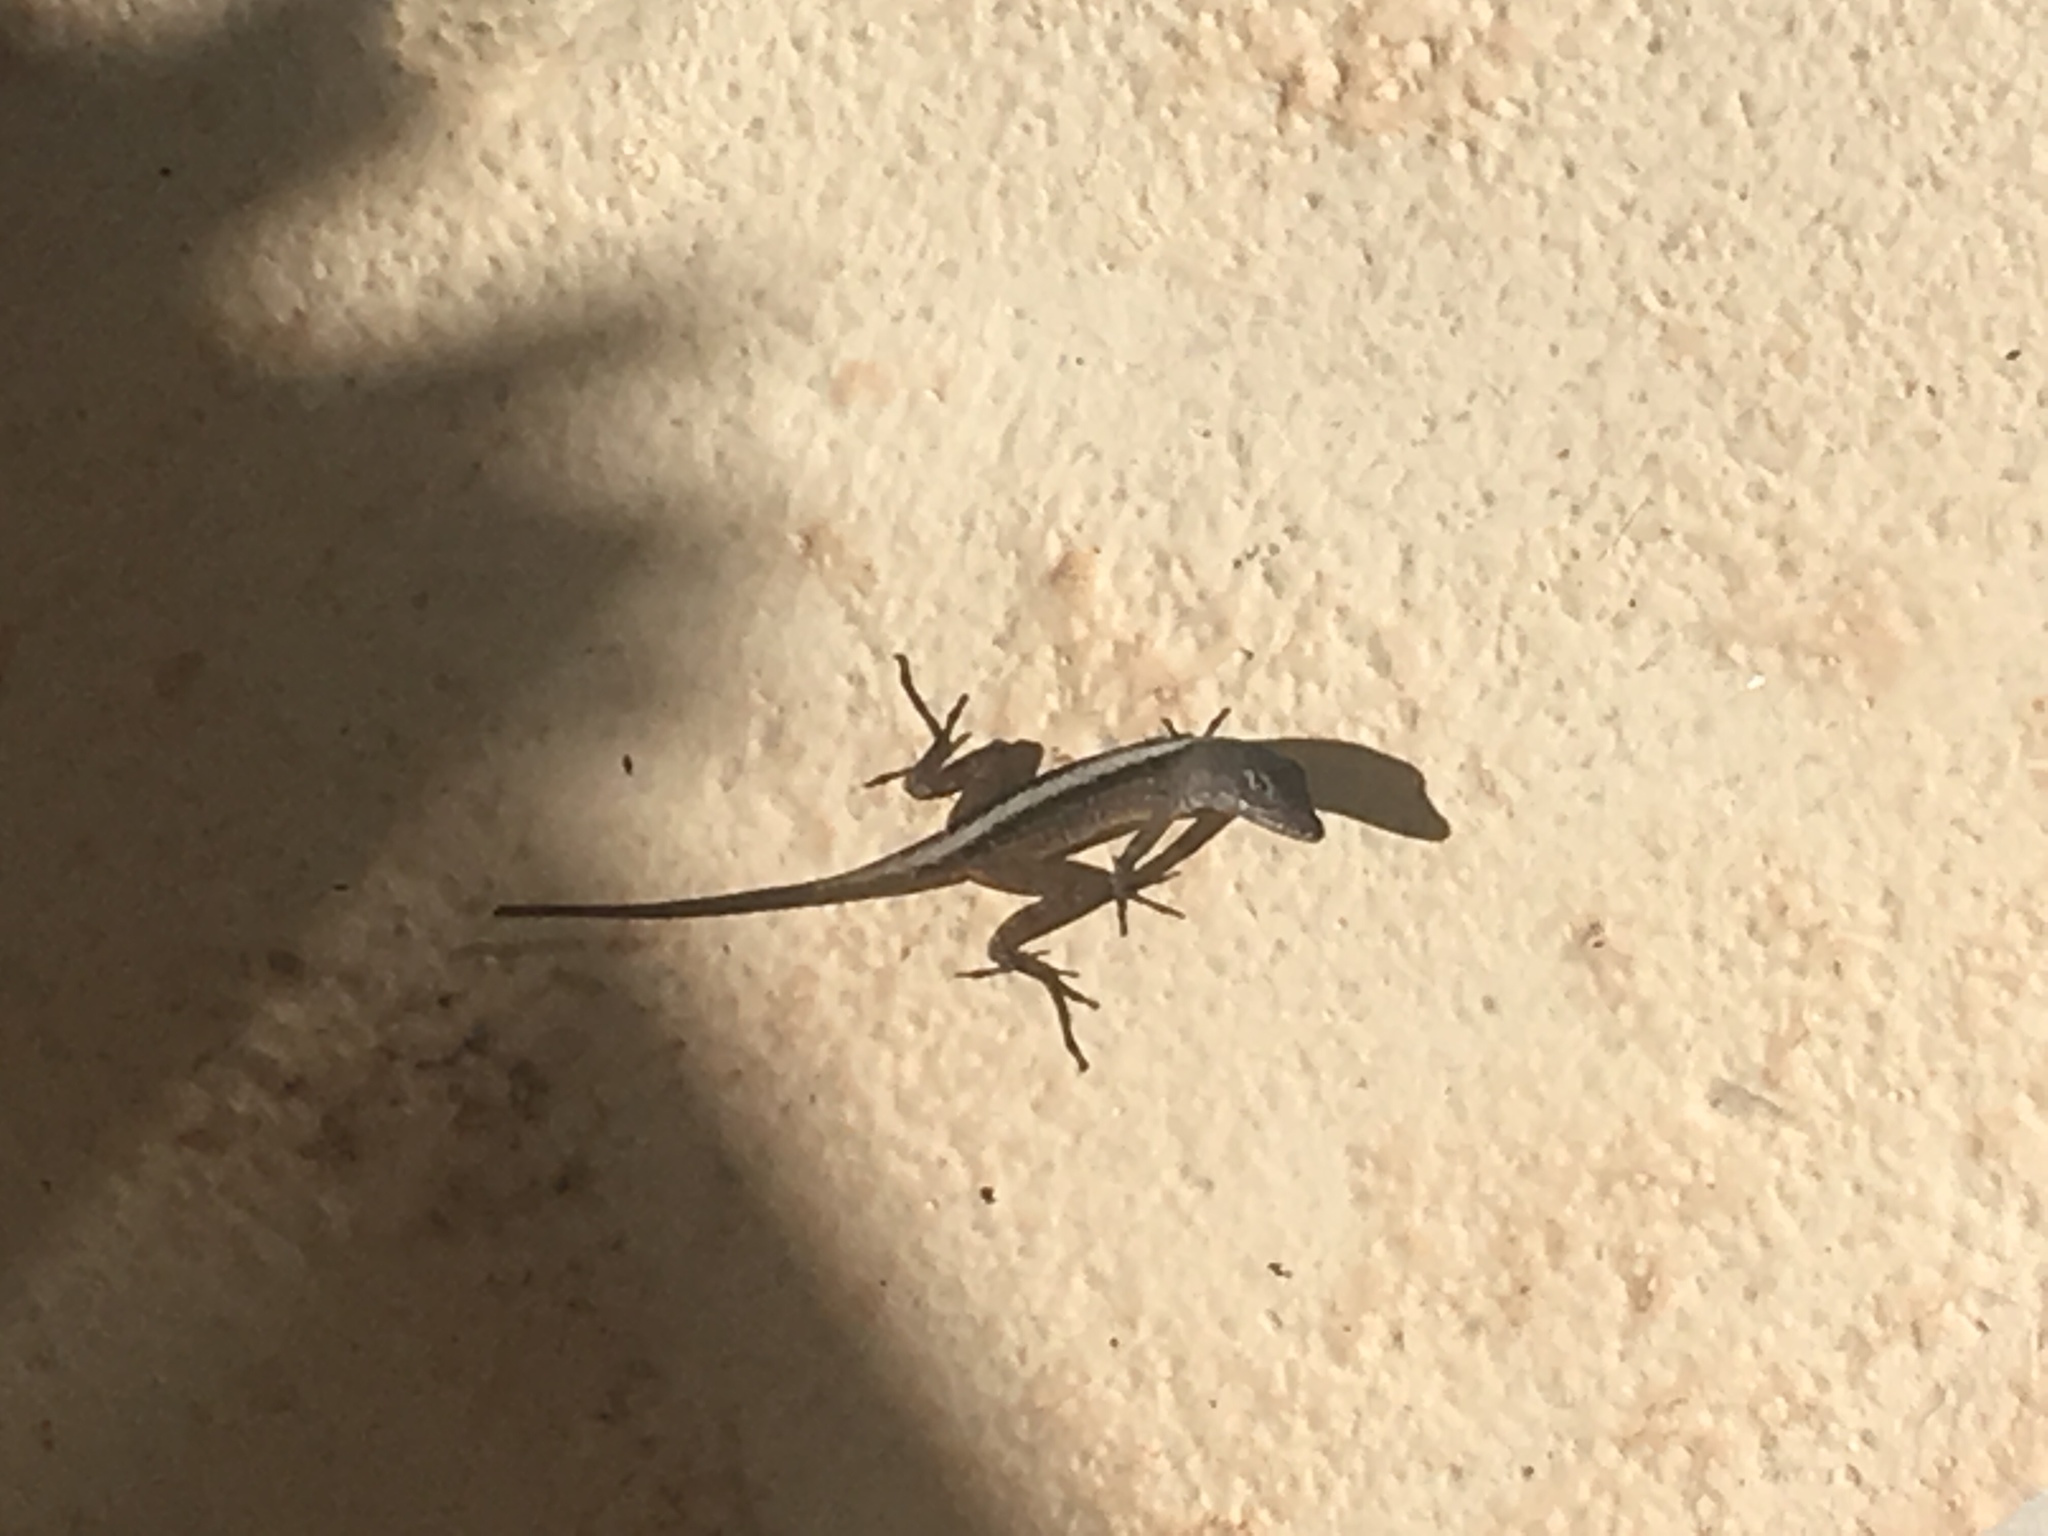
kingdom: Animalia
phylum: Chordata
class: Squamata
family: Dactyloidae
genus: Anolis
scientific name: Anolis sagrei
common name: Brown anole
